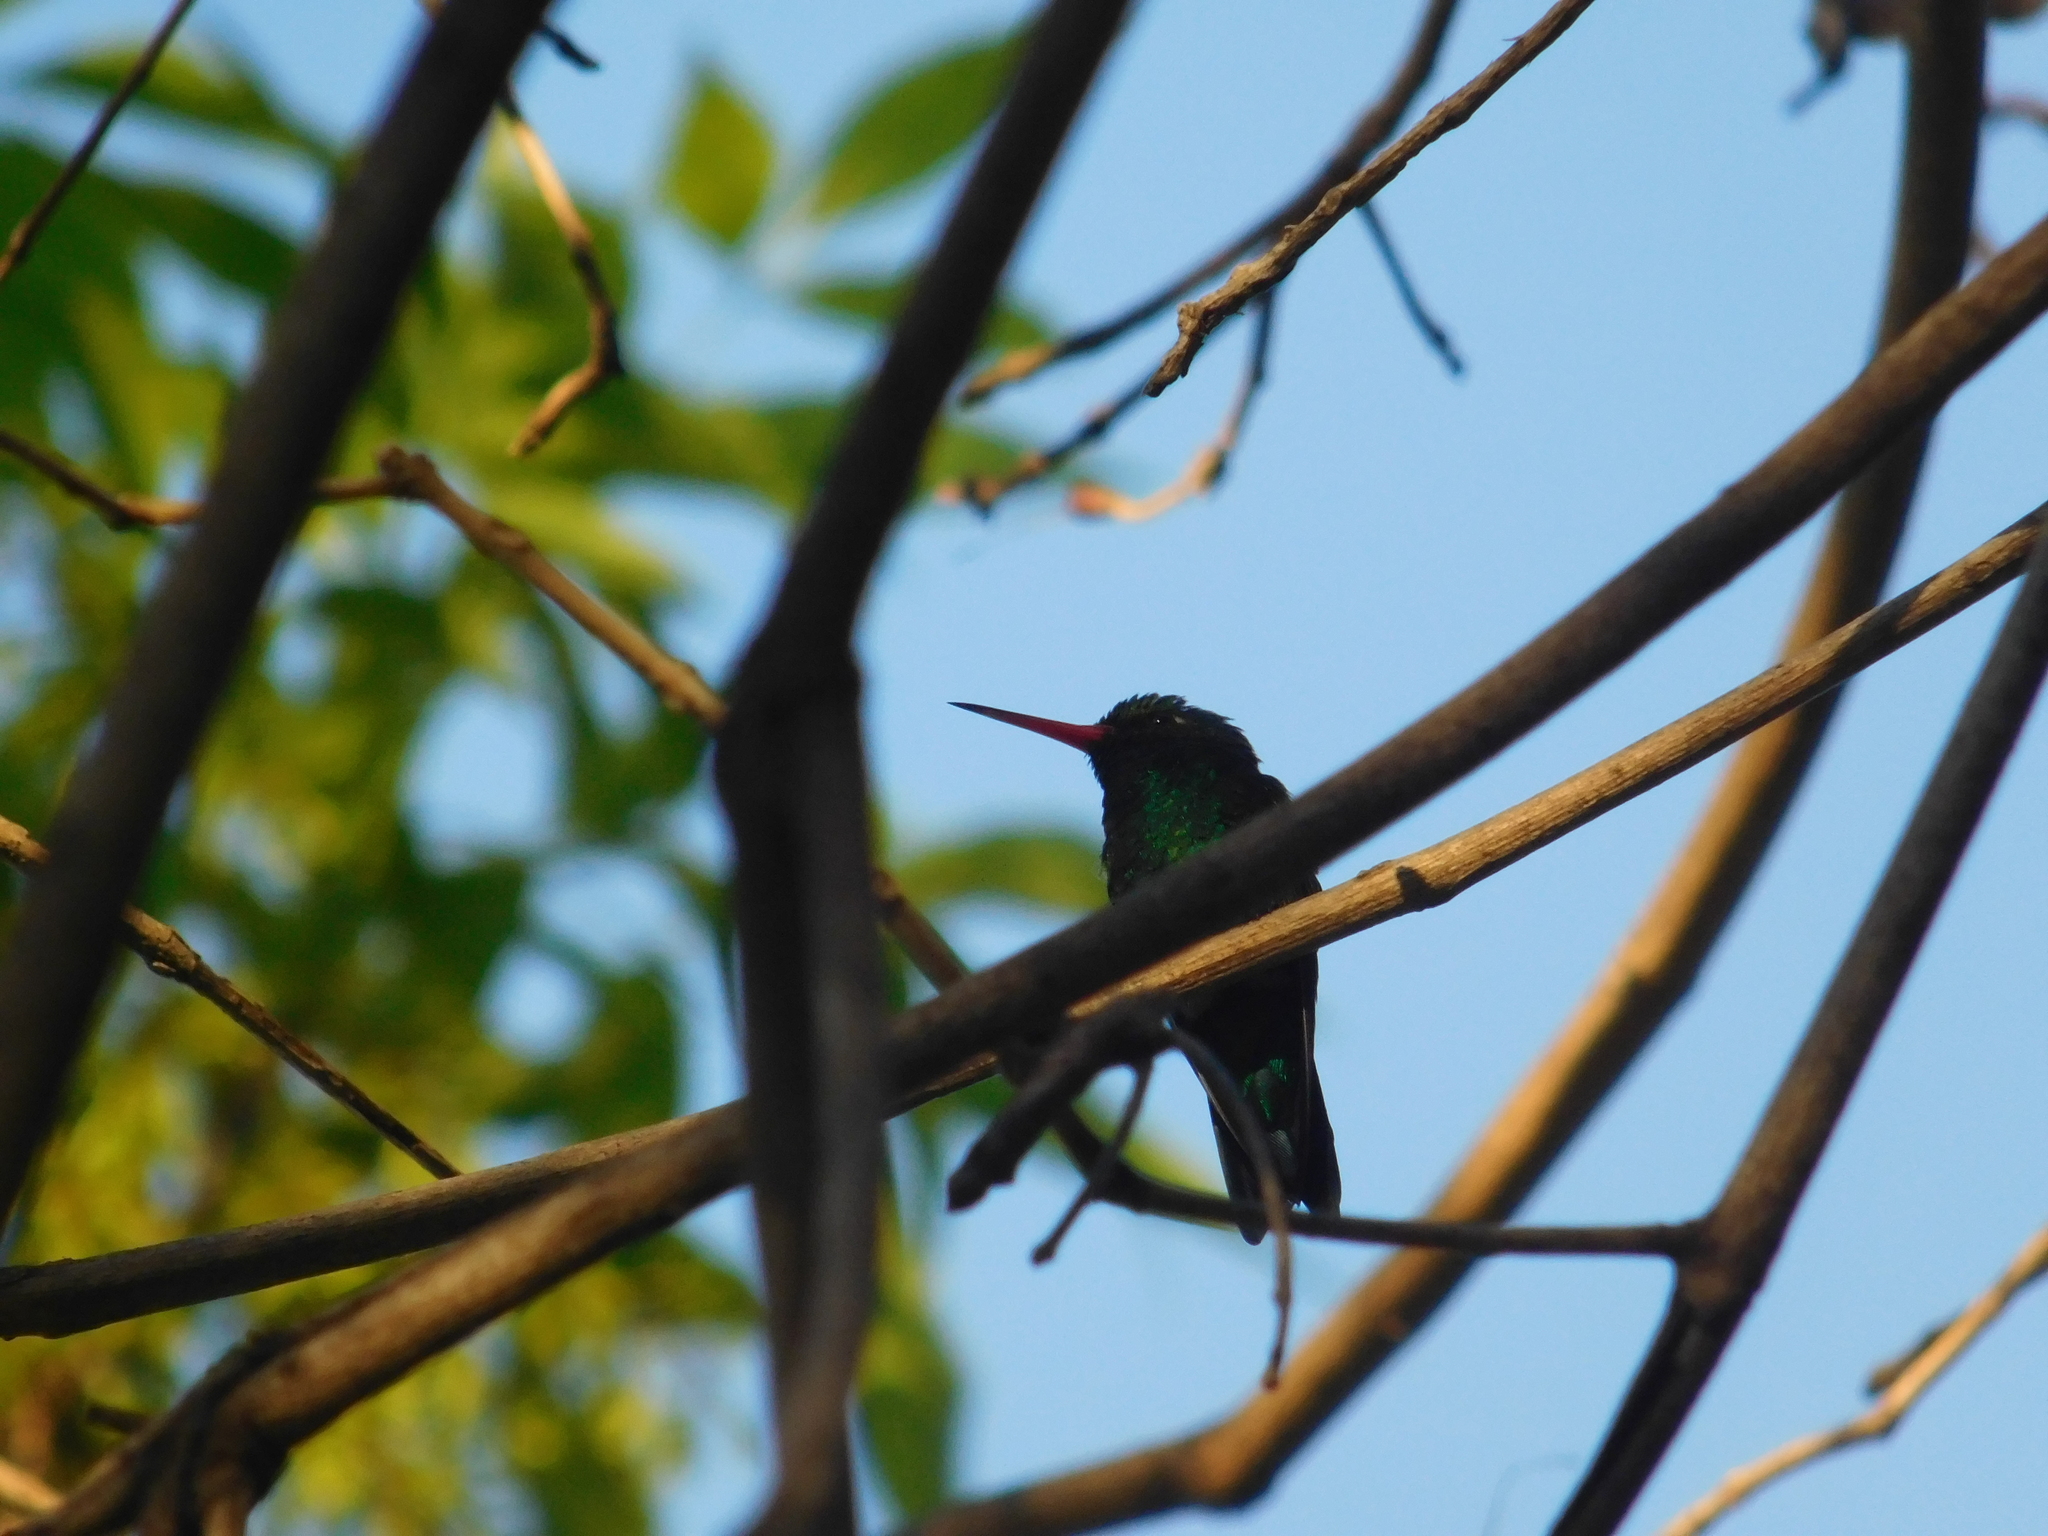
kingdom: Animalia
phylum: Chordata
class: Aves
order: Apodiformes
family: Trochilidae
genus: Chlorostilbon
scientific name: Chlorostilbon lucidus
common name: Glittering-bellied emerald
